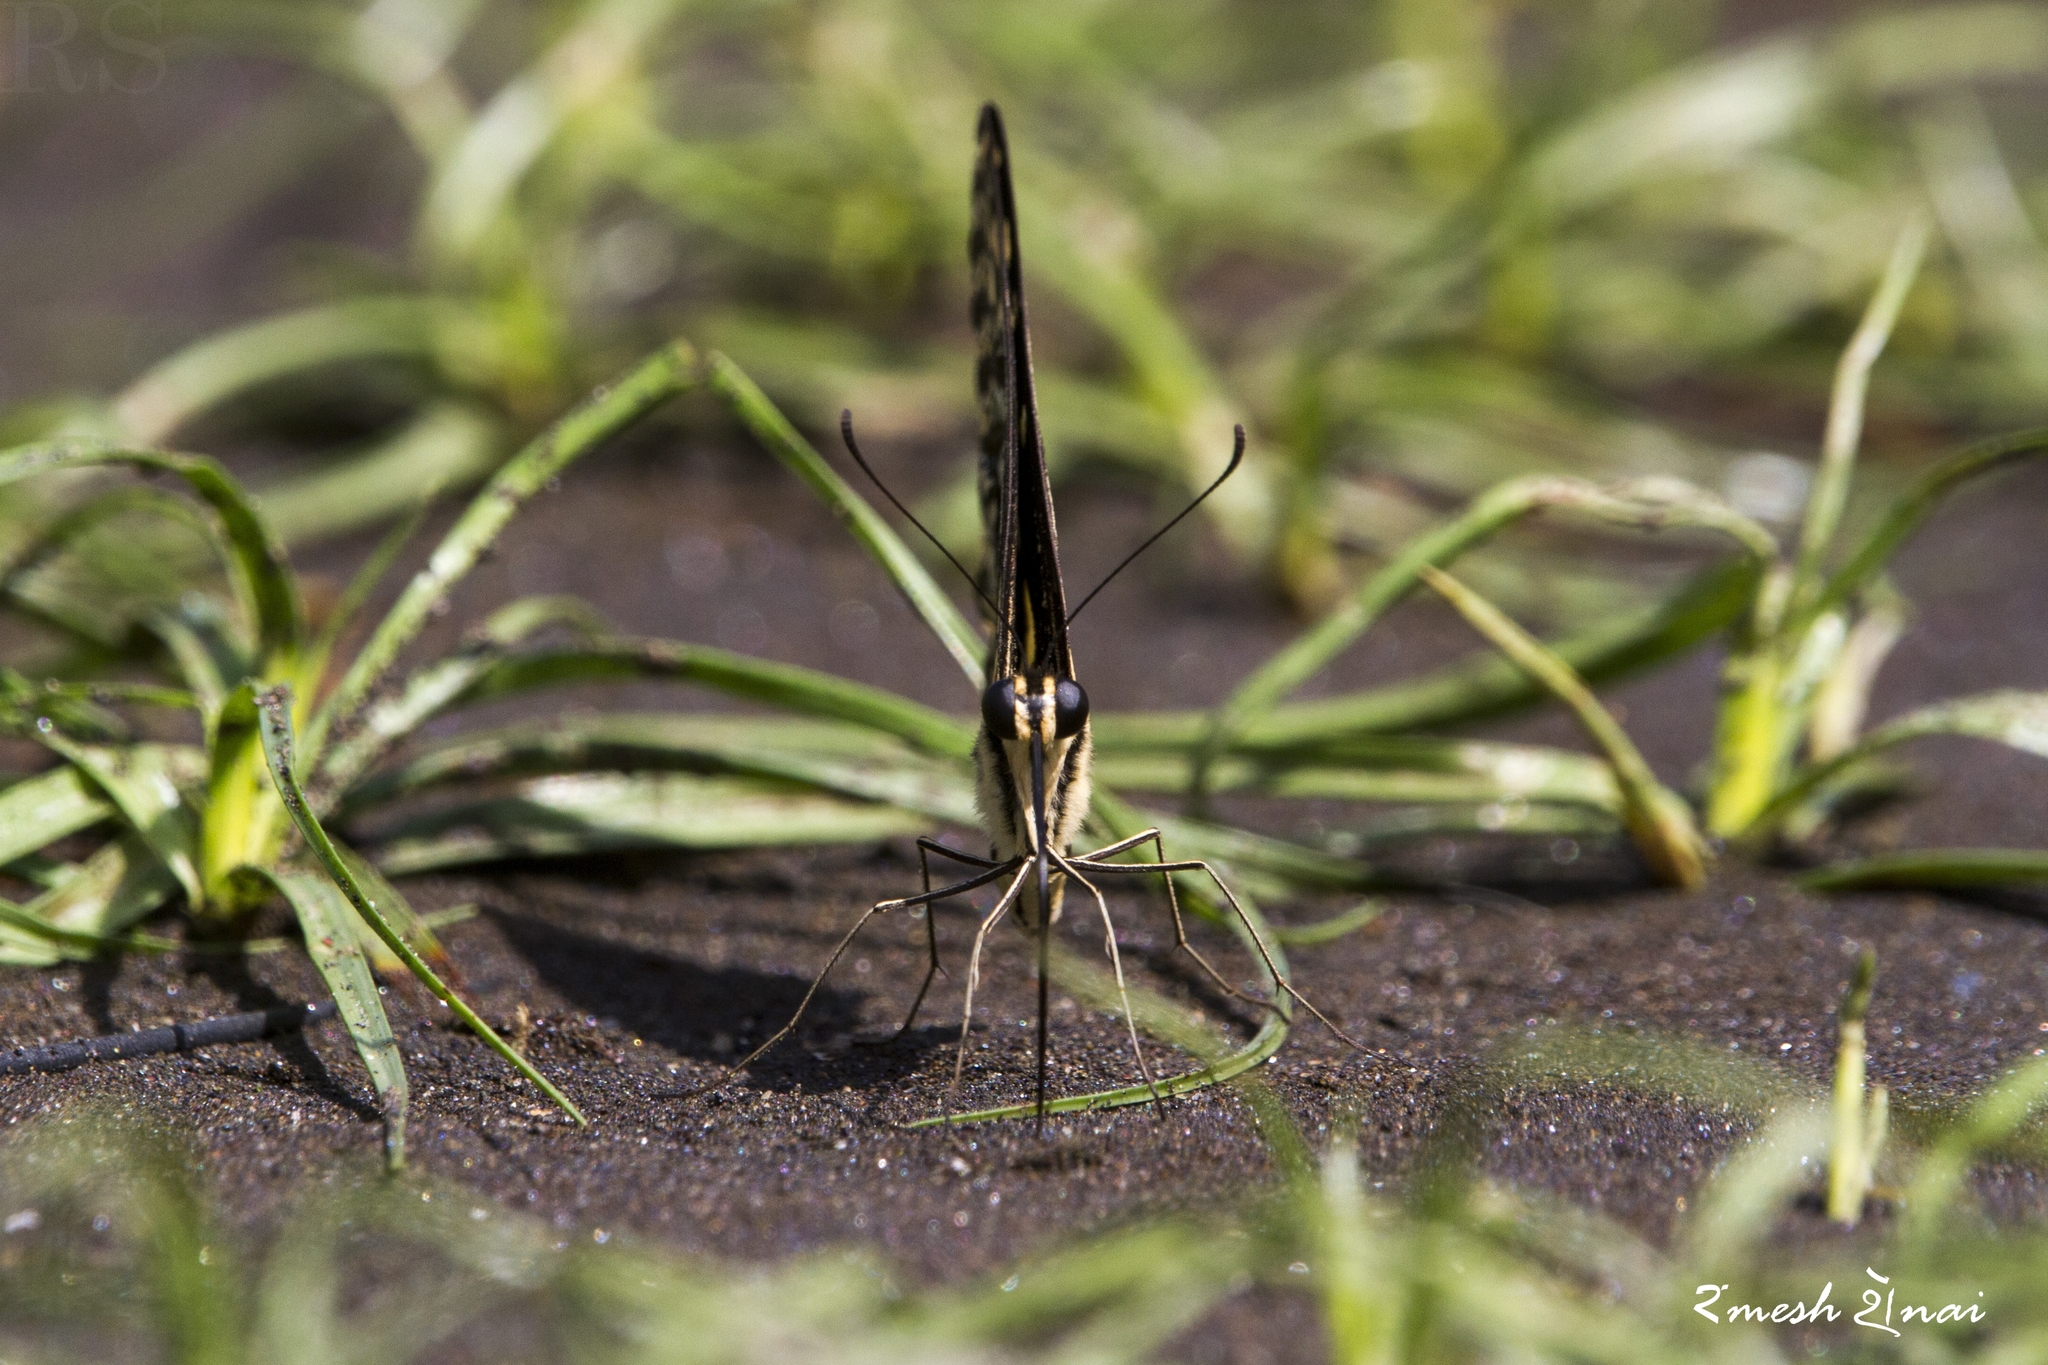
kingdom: Animalia
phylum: Arthropoda
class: Insecta
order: Lepidoptera
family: Papilionidae
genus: Papilio
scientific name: Papilio demoleus
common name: Lime butterfly
